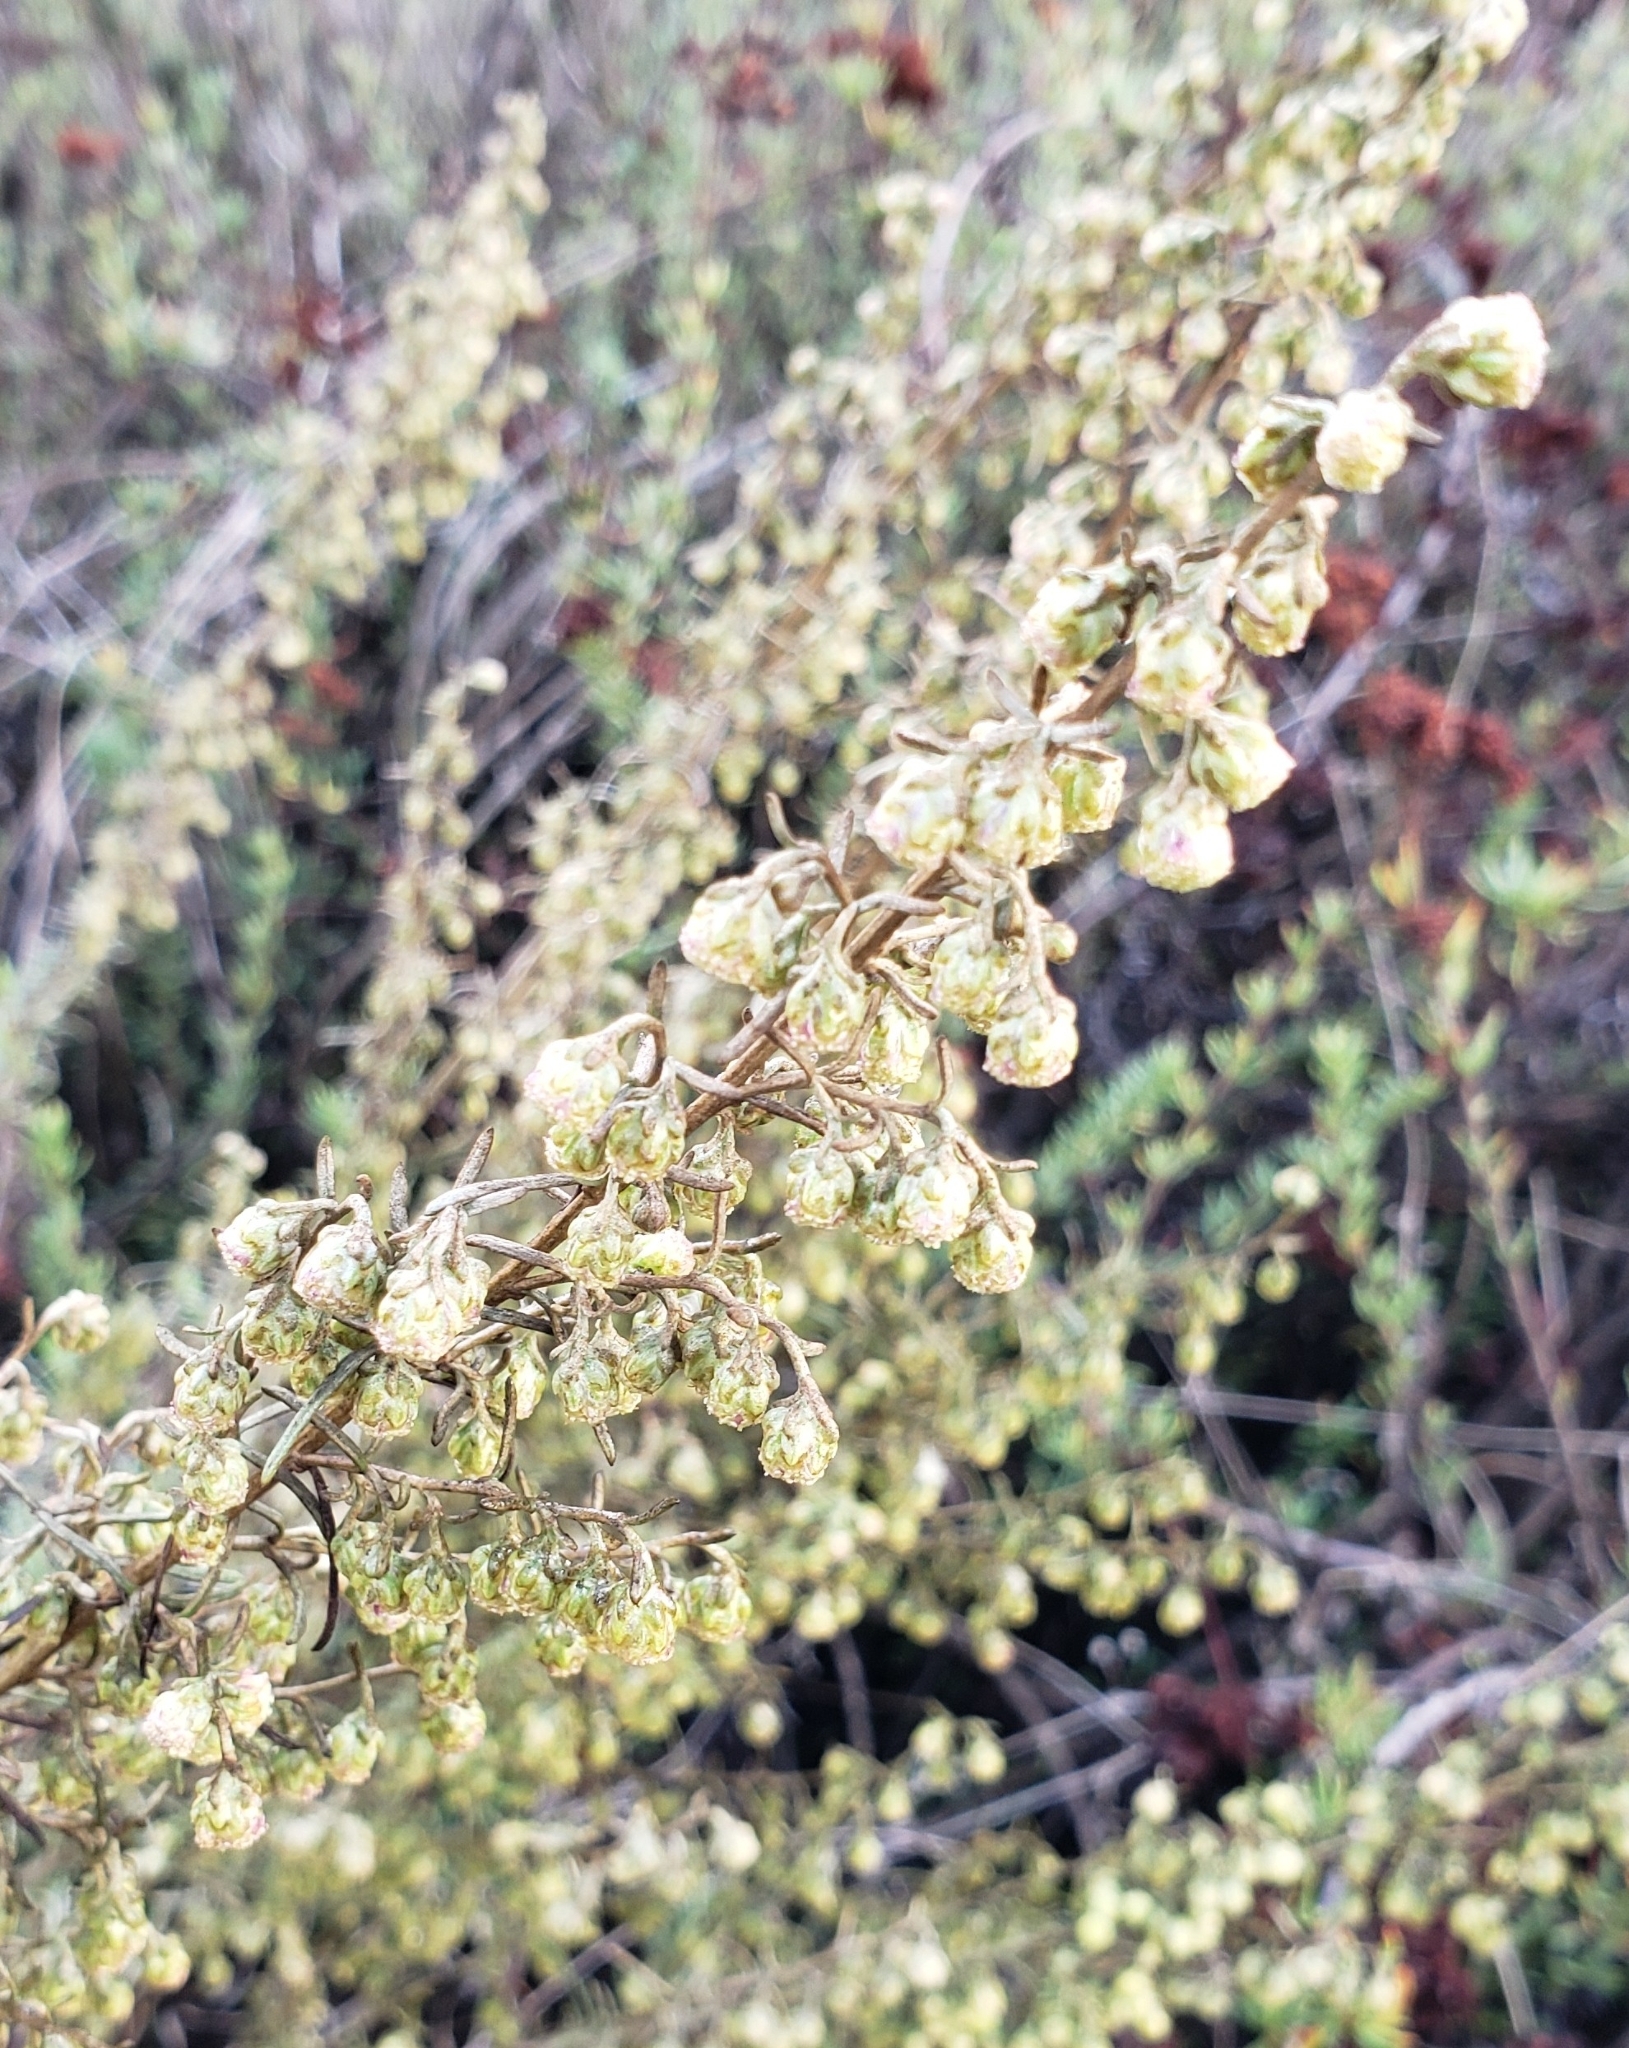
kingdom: Plantae
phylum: Tracheophyta
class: Magnoliopsida
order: Asterales
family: Asteraceae
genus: Artemisia
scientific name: Artemisia californica
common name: California sagebrush
